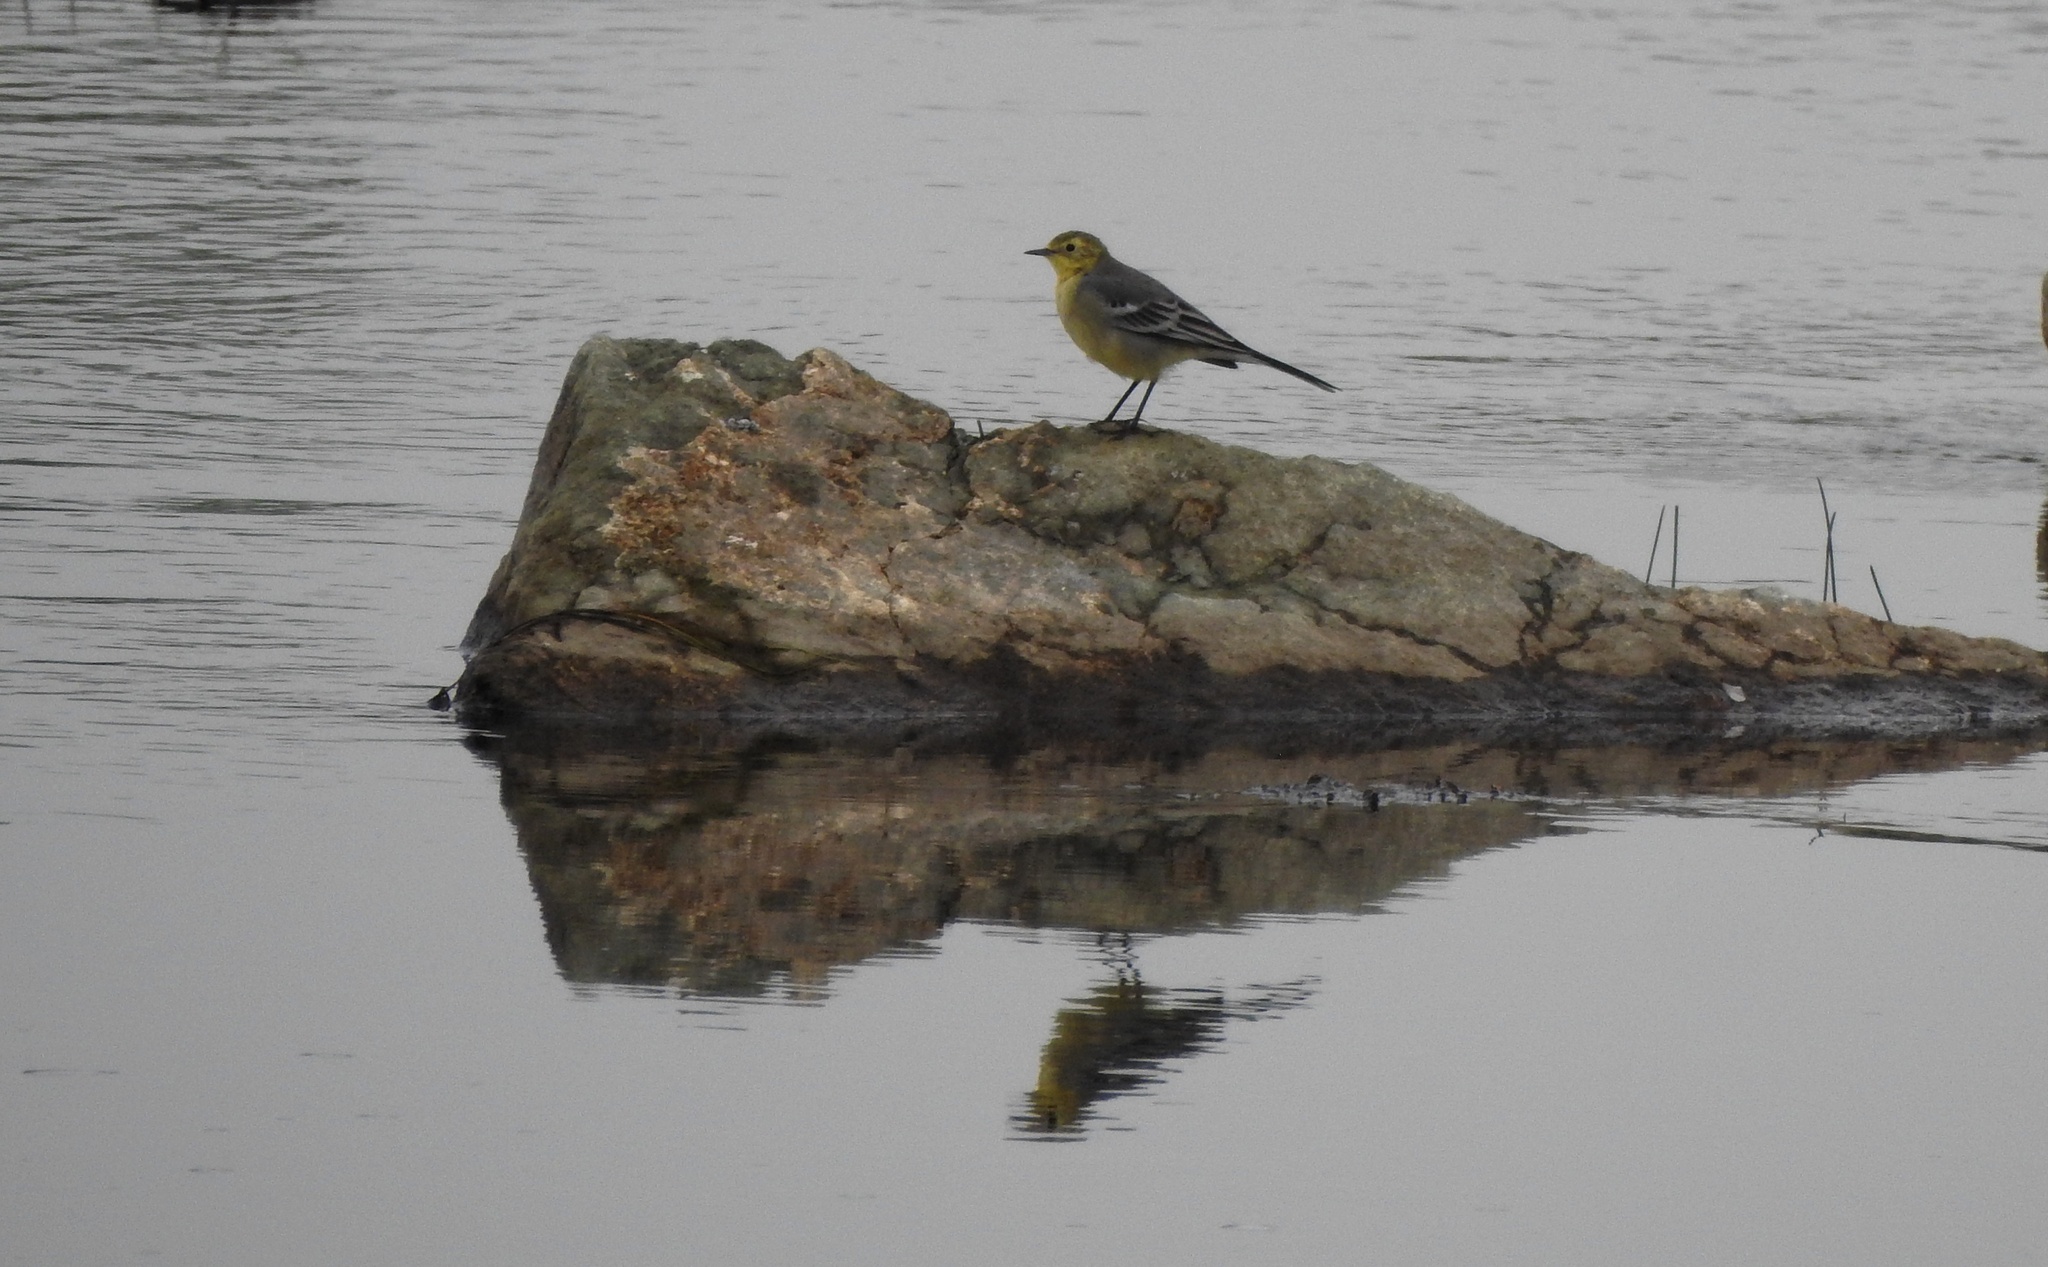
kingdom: Animalia
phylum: Chordata
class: Aves
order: Passeriformes
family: Motacillidae
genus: Motacilla
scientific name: Motacilla citreola
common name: Citrine wagtail
